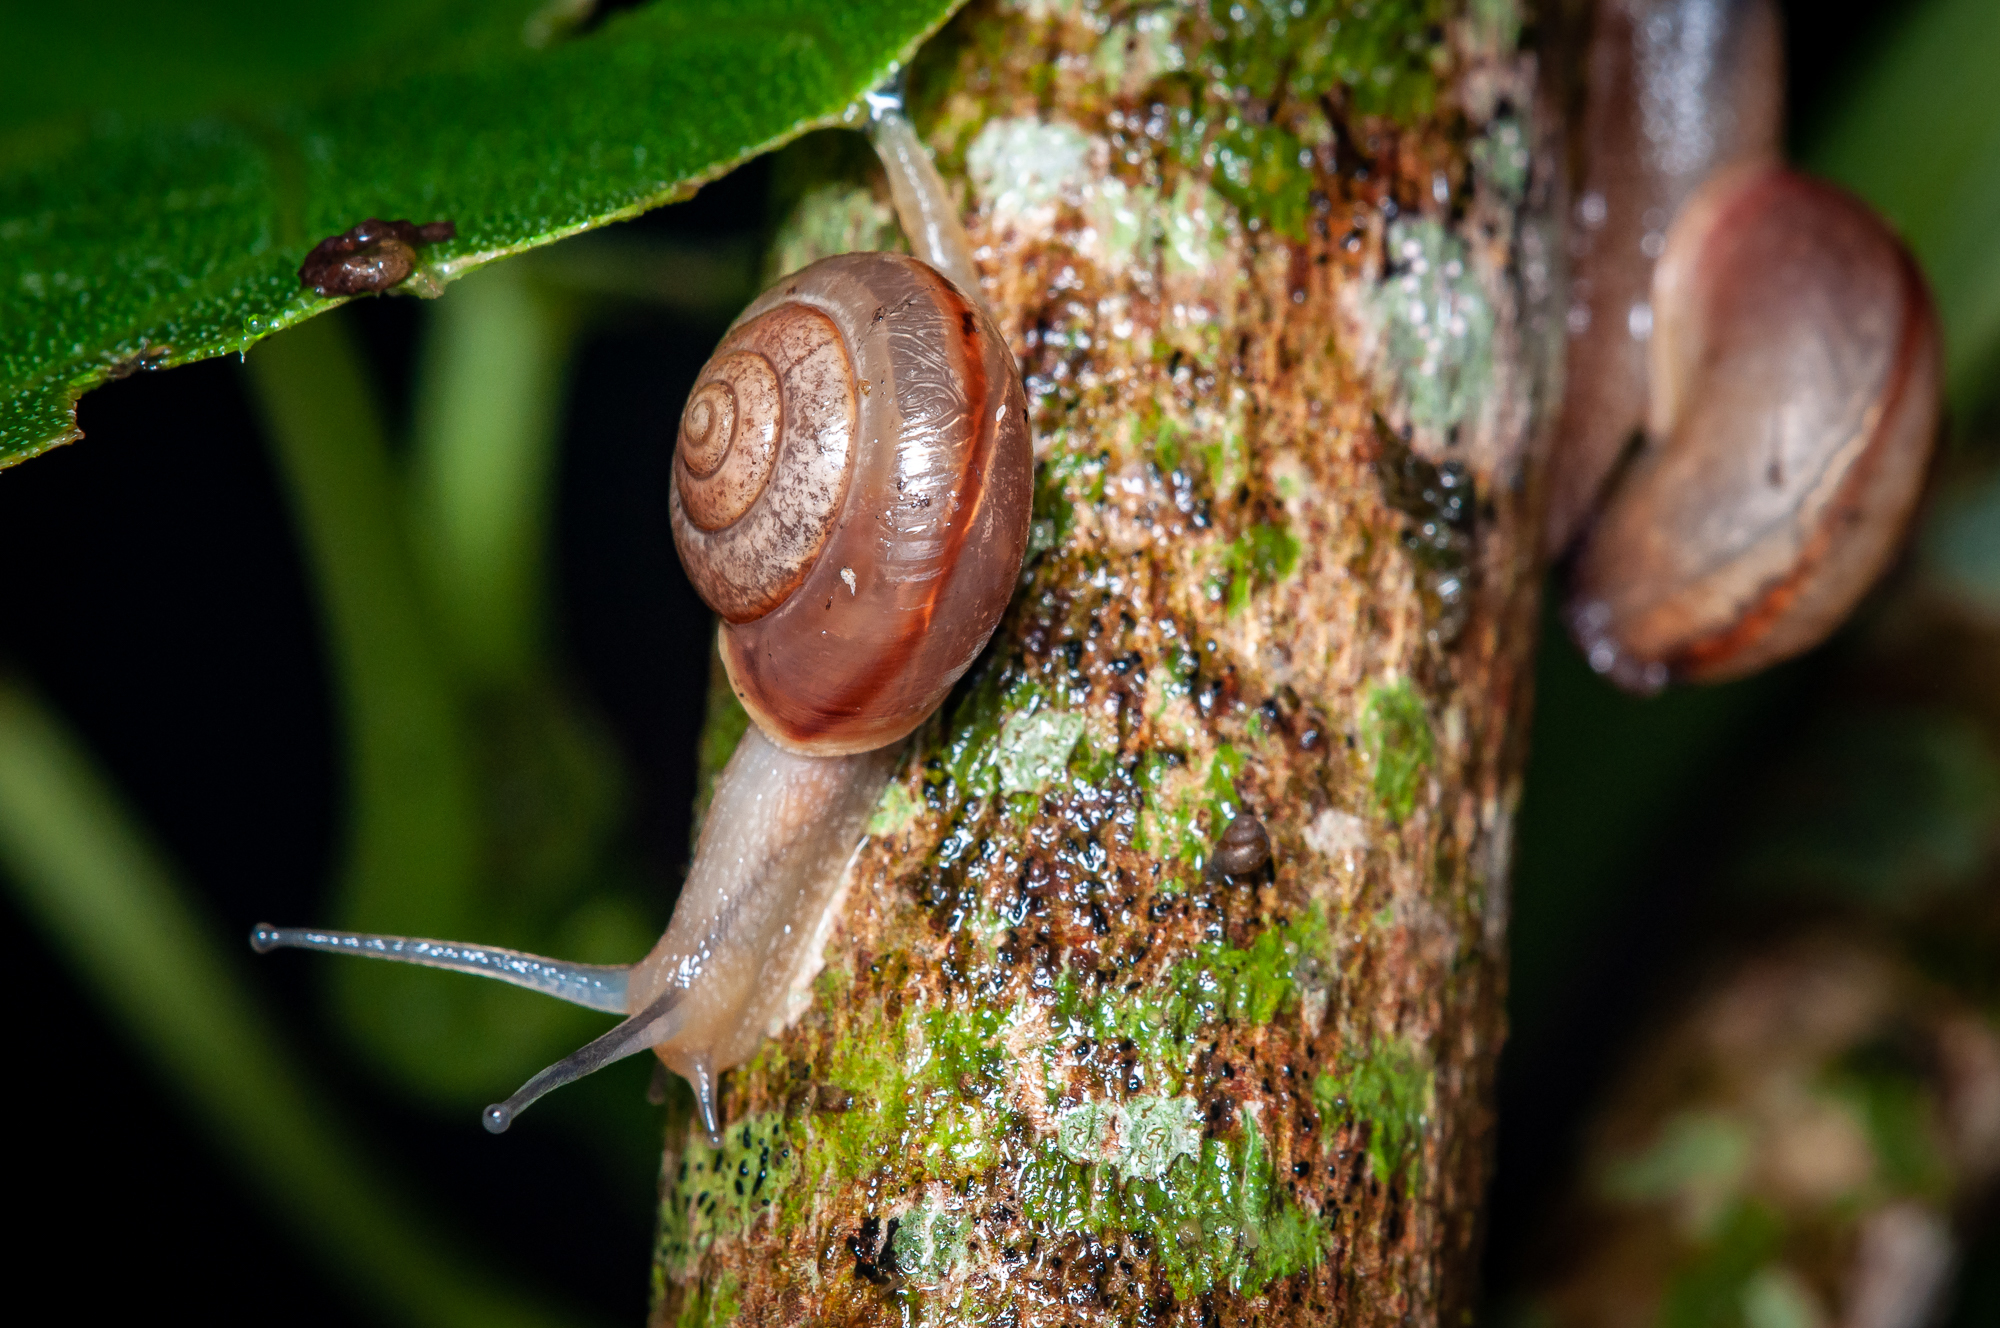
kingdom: Animalia
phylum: Mollusca
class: Gastropoda
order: Stylommatophora
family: Camaenidae
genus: Bradybaena
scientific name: Bradybaena similaris
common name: Asian trampsnail
